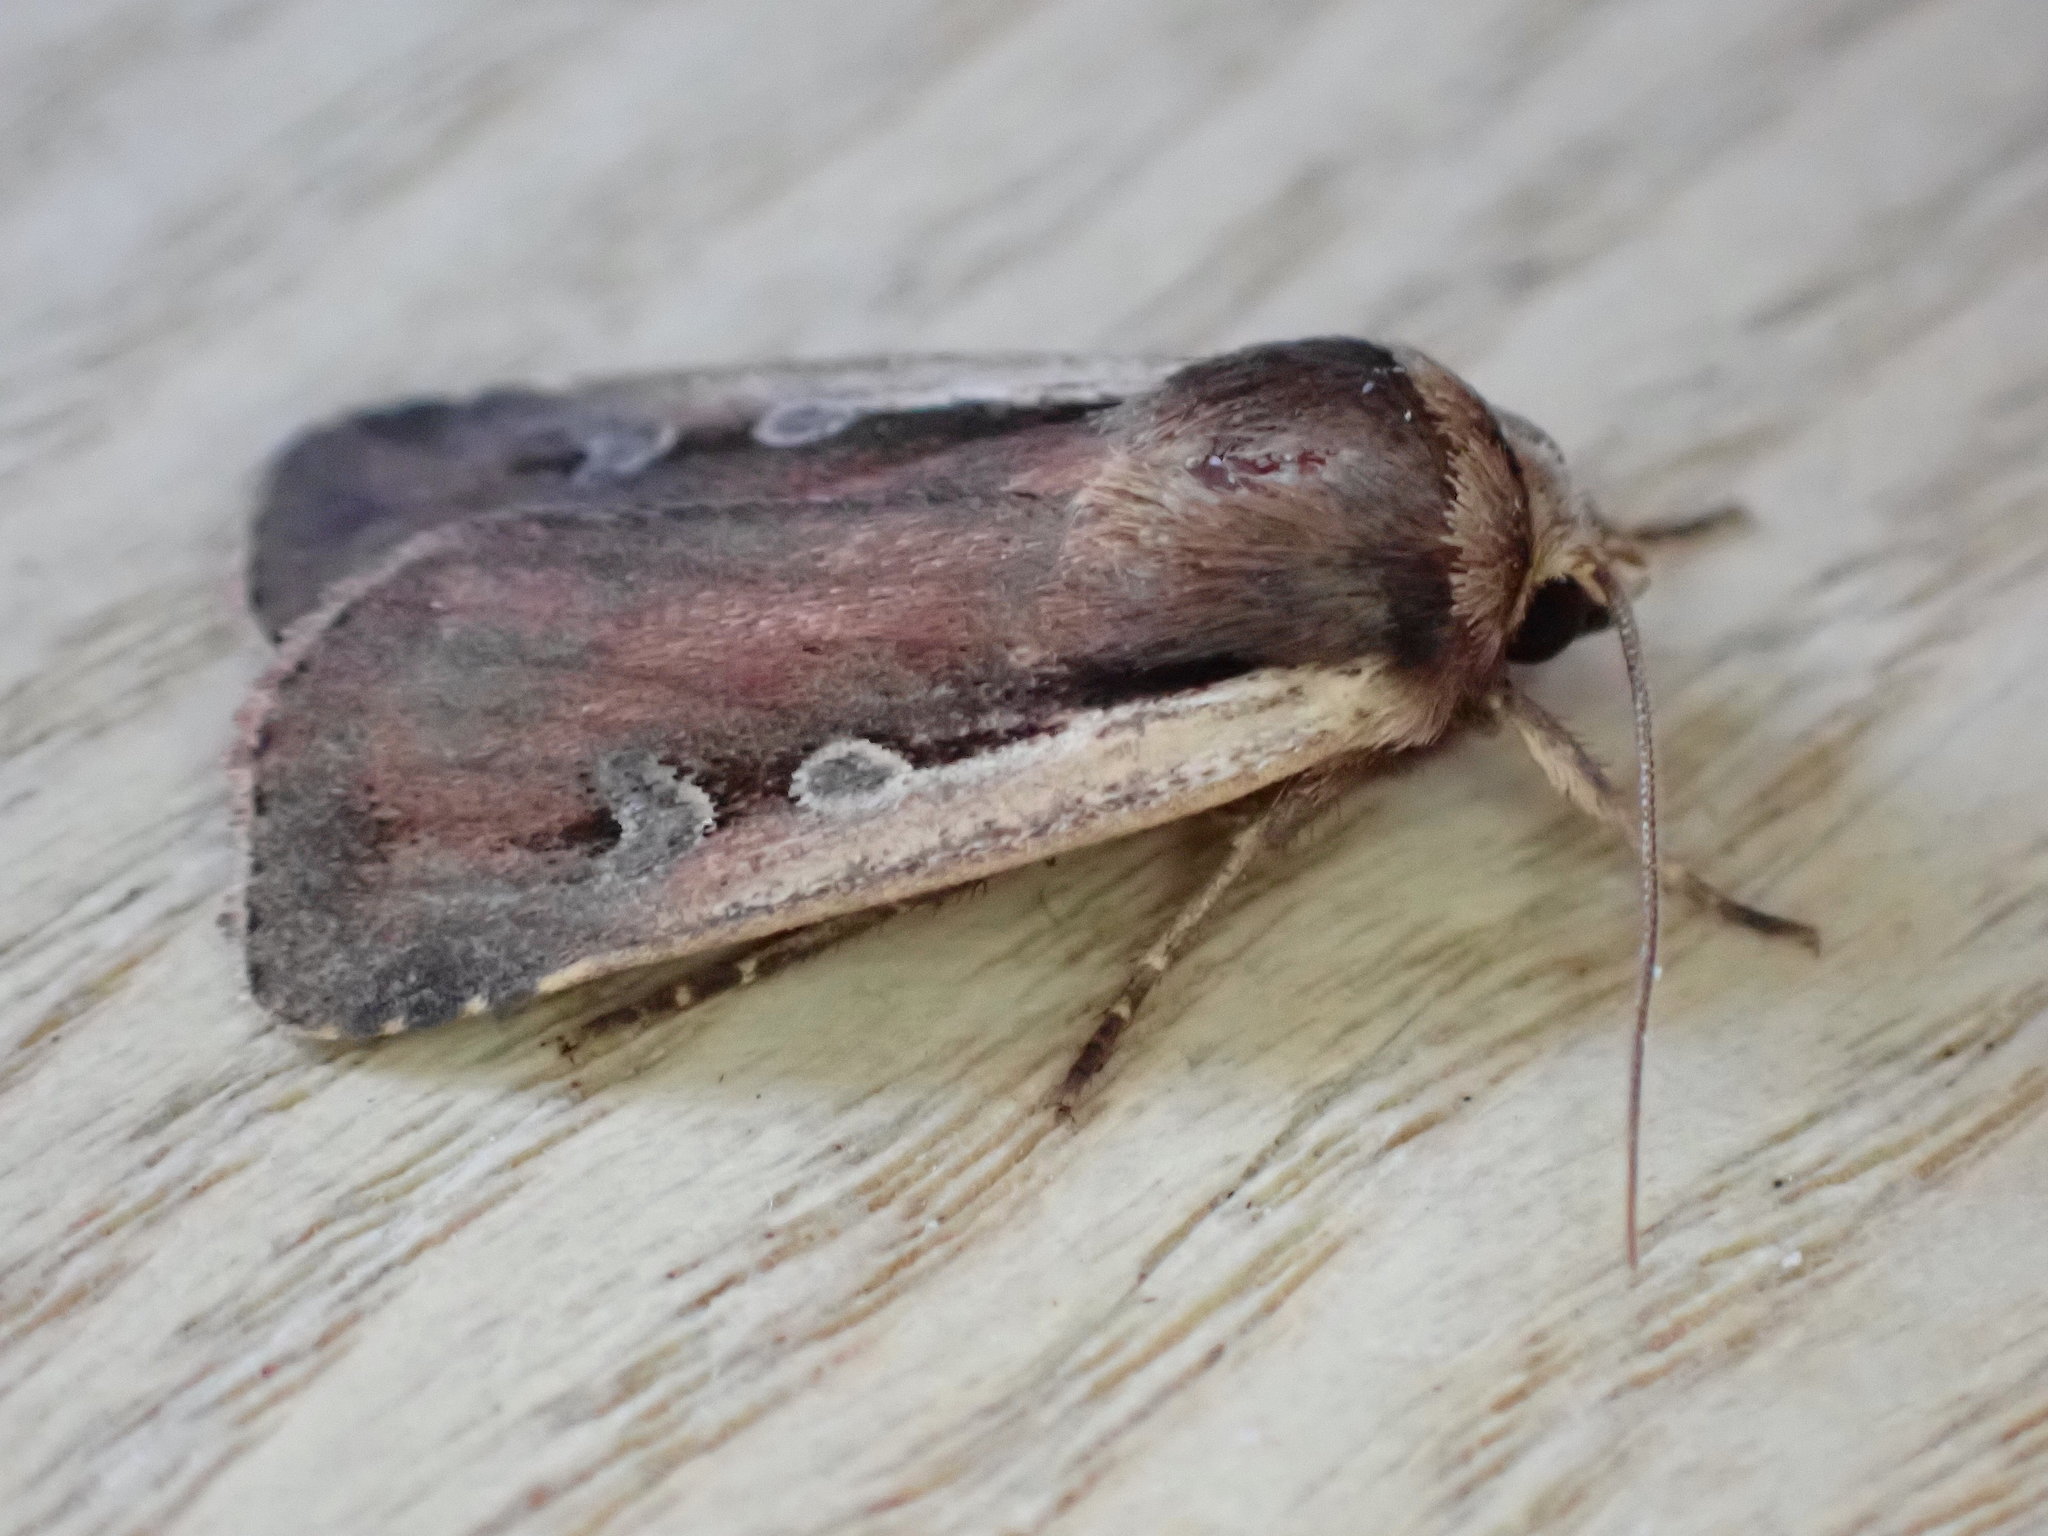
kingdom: Animalia
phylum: Arthropoda
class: Insecta
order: Lepidoptera
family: Noctuidae
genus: Ochropleura
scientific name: Ochropleura plecta
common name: Flame shoulder
